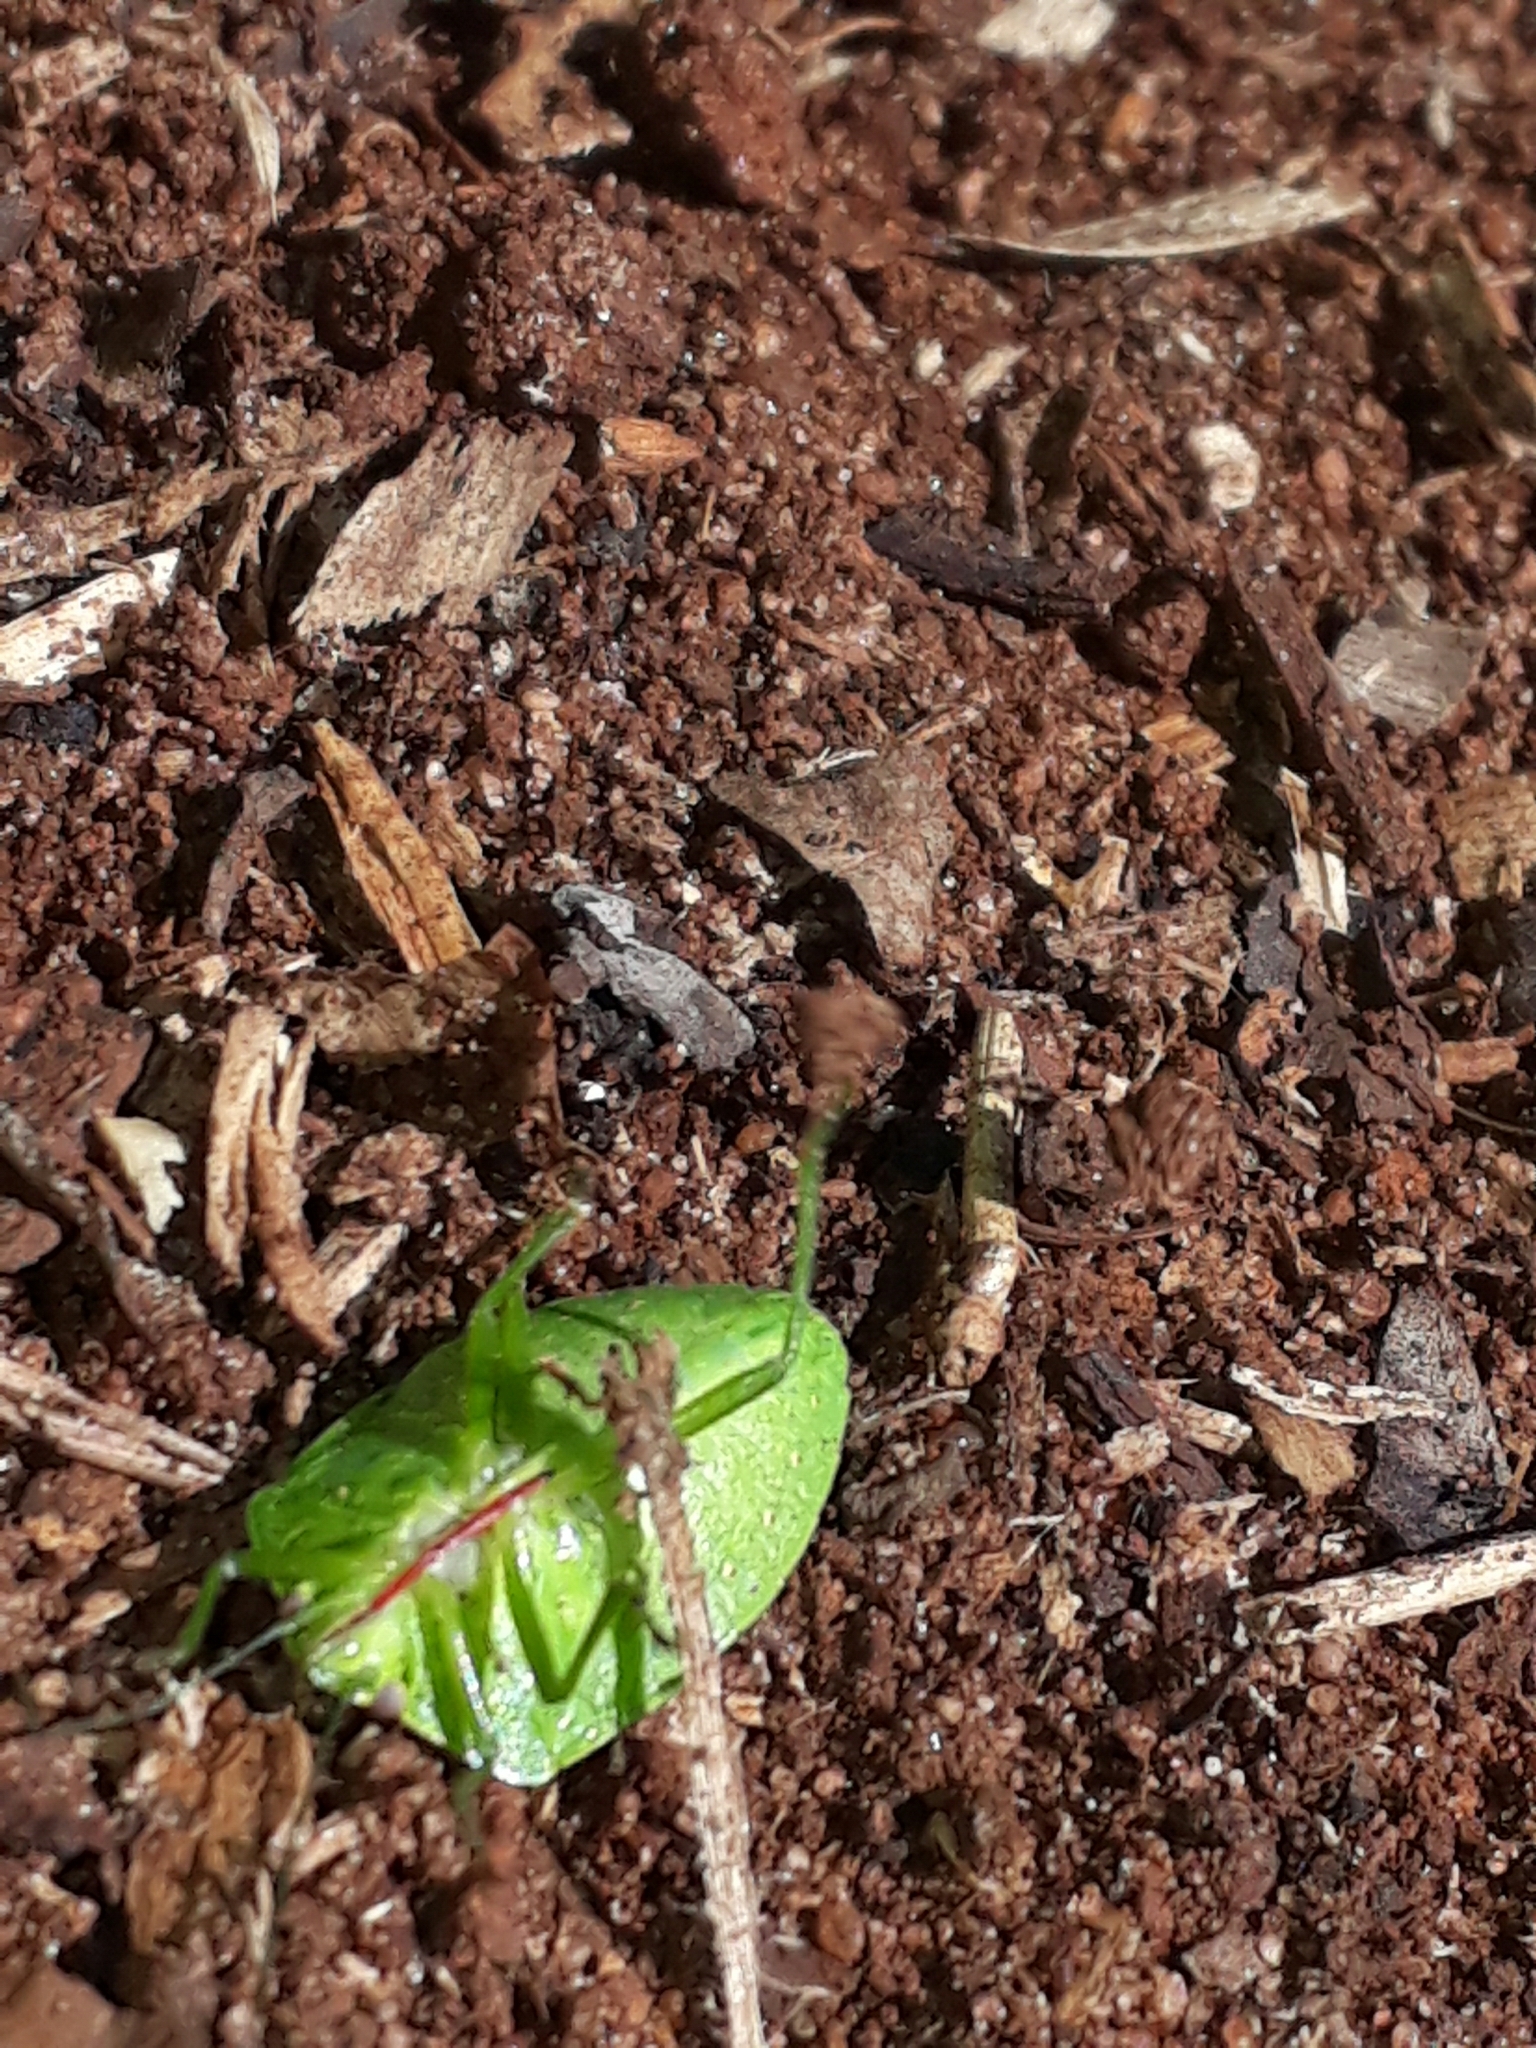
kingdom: Animalia
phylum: Arthropoda
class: Insecta
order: Hemiptera
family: Pentatomidae
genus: Chinavia
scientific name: Chinavia
